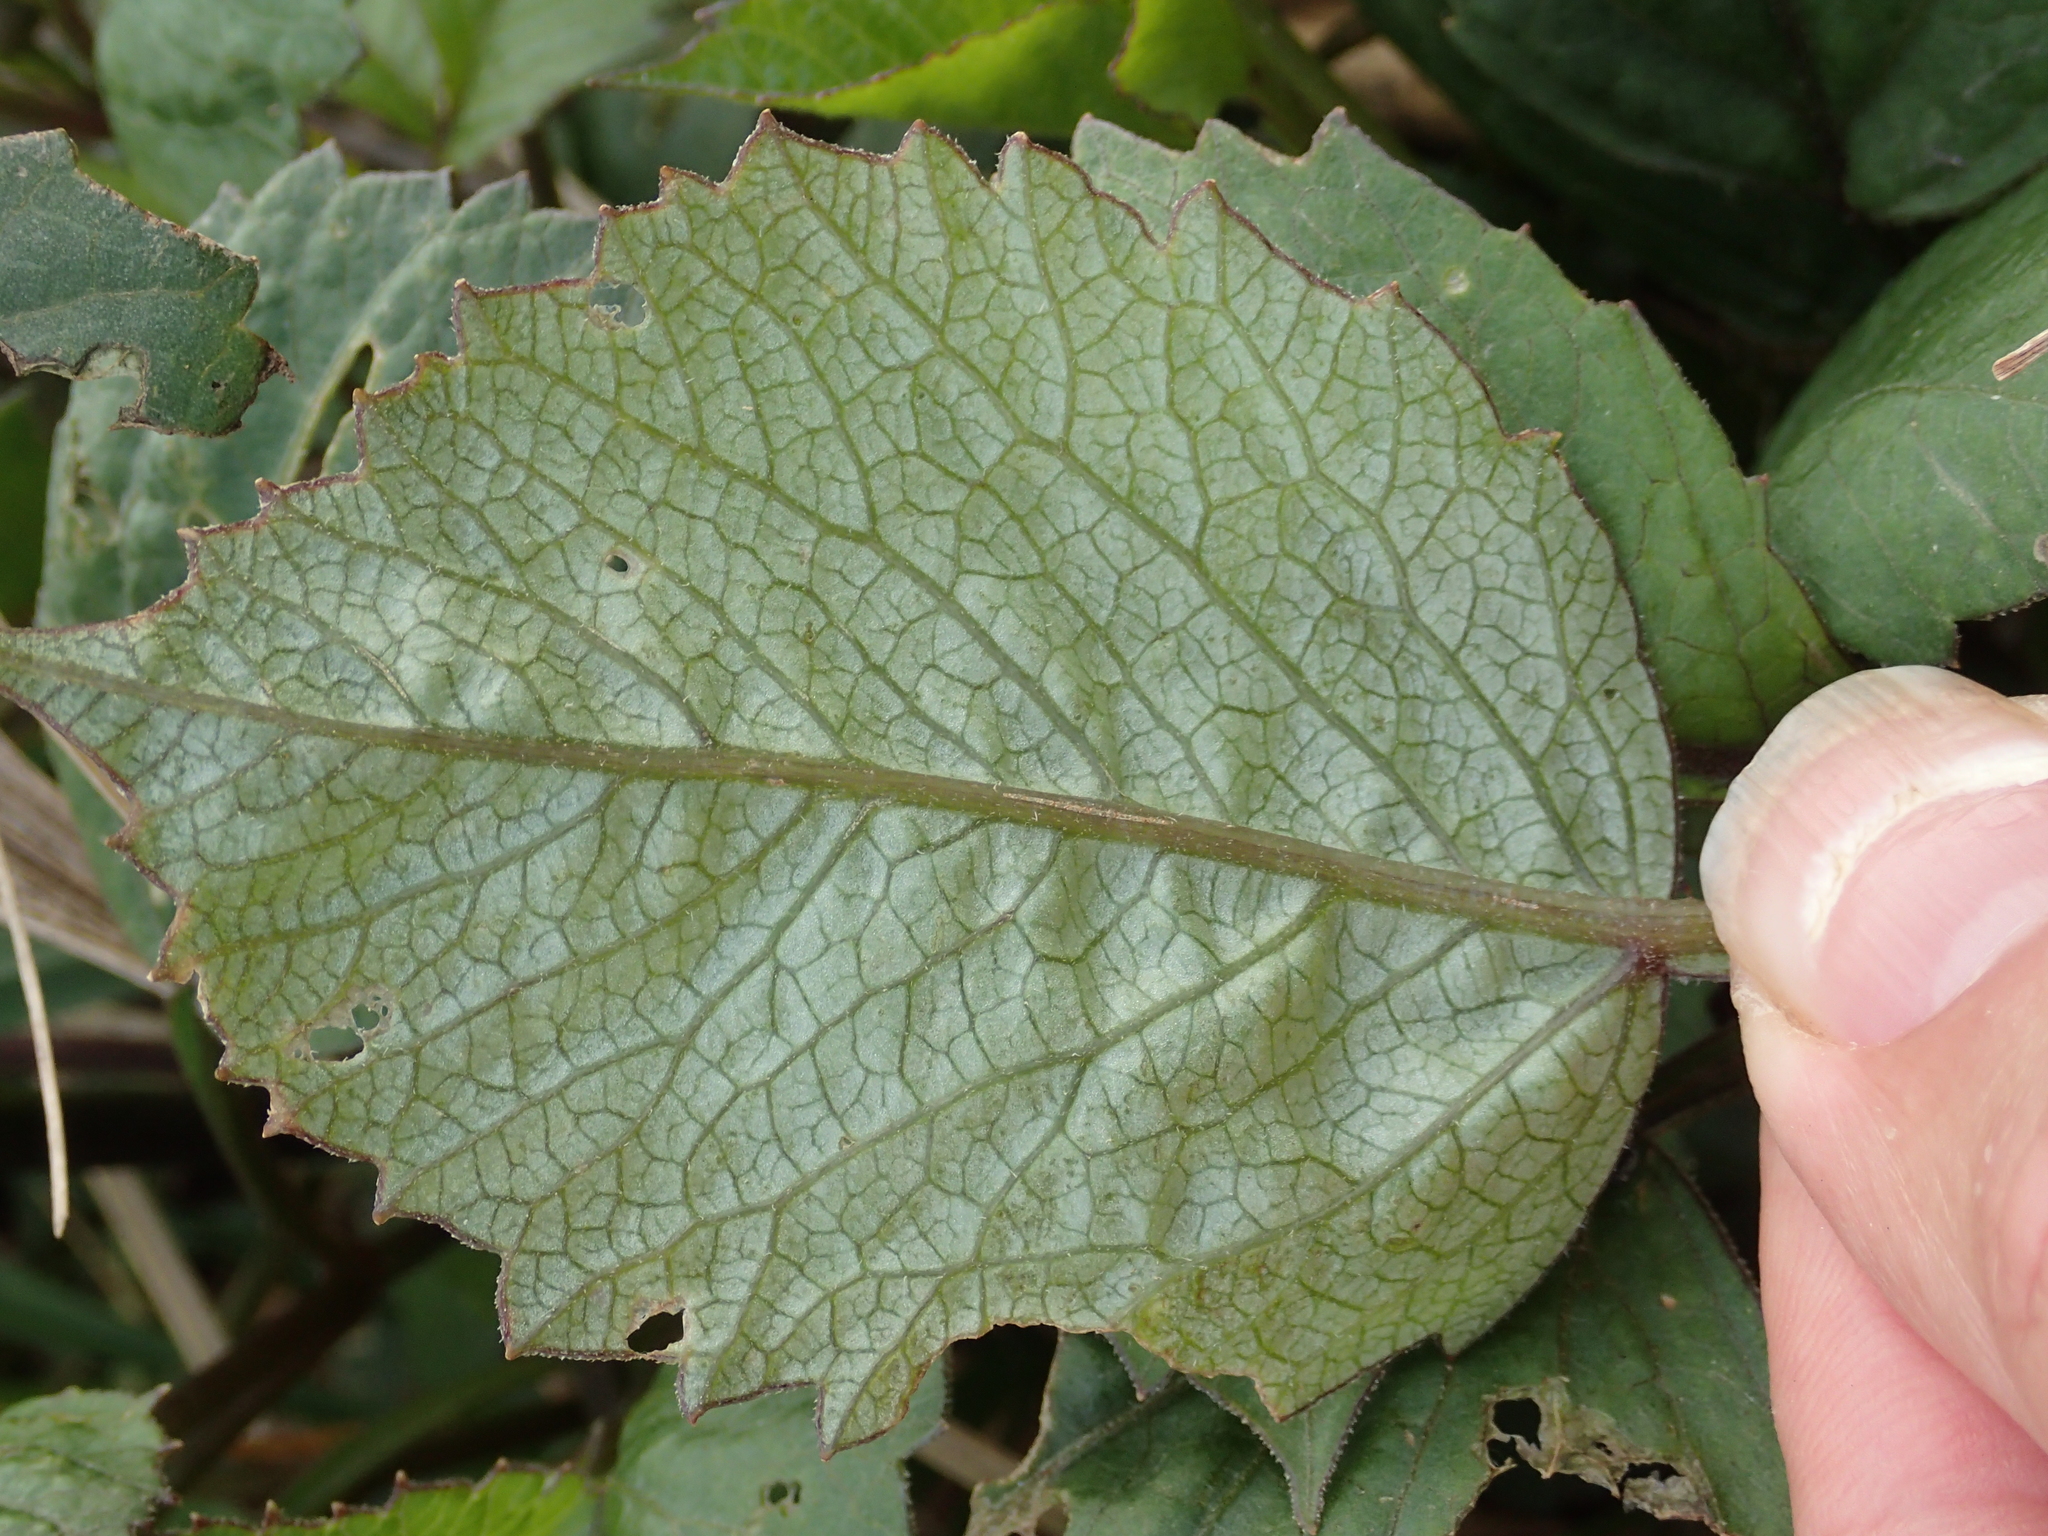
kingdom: Plantae
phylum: Tracheophyta
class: Magnoliopsida
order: Asterales
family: Asteraceae
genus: Dahlia
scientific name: Dahlia pinnata
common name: Dahlia
